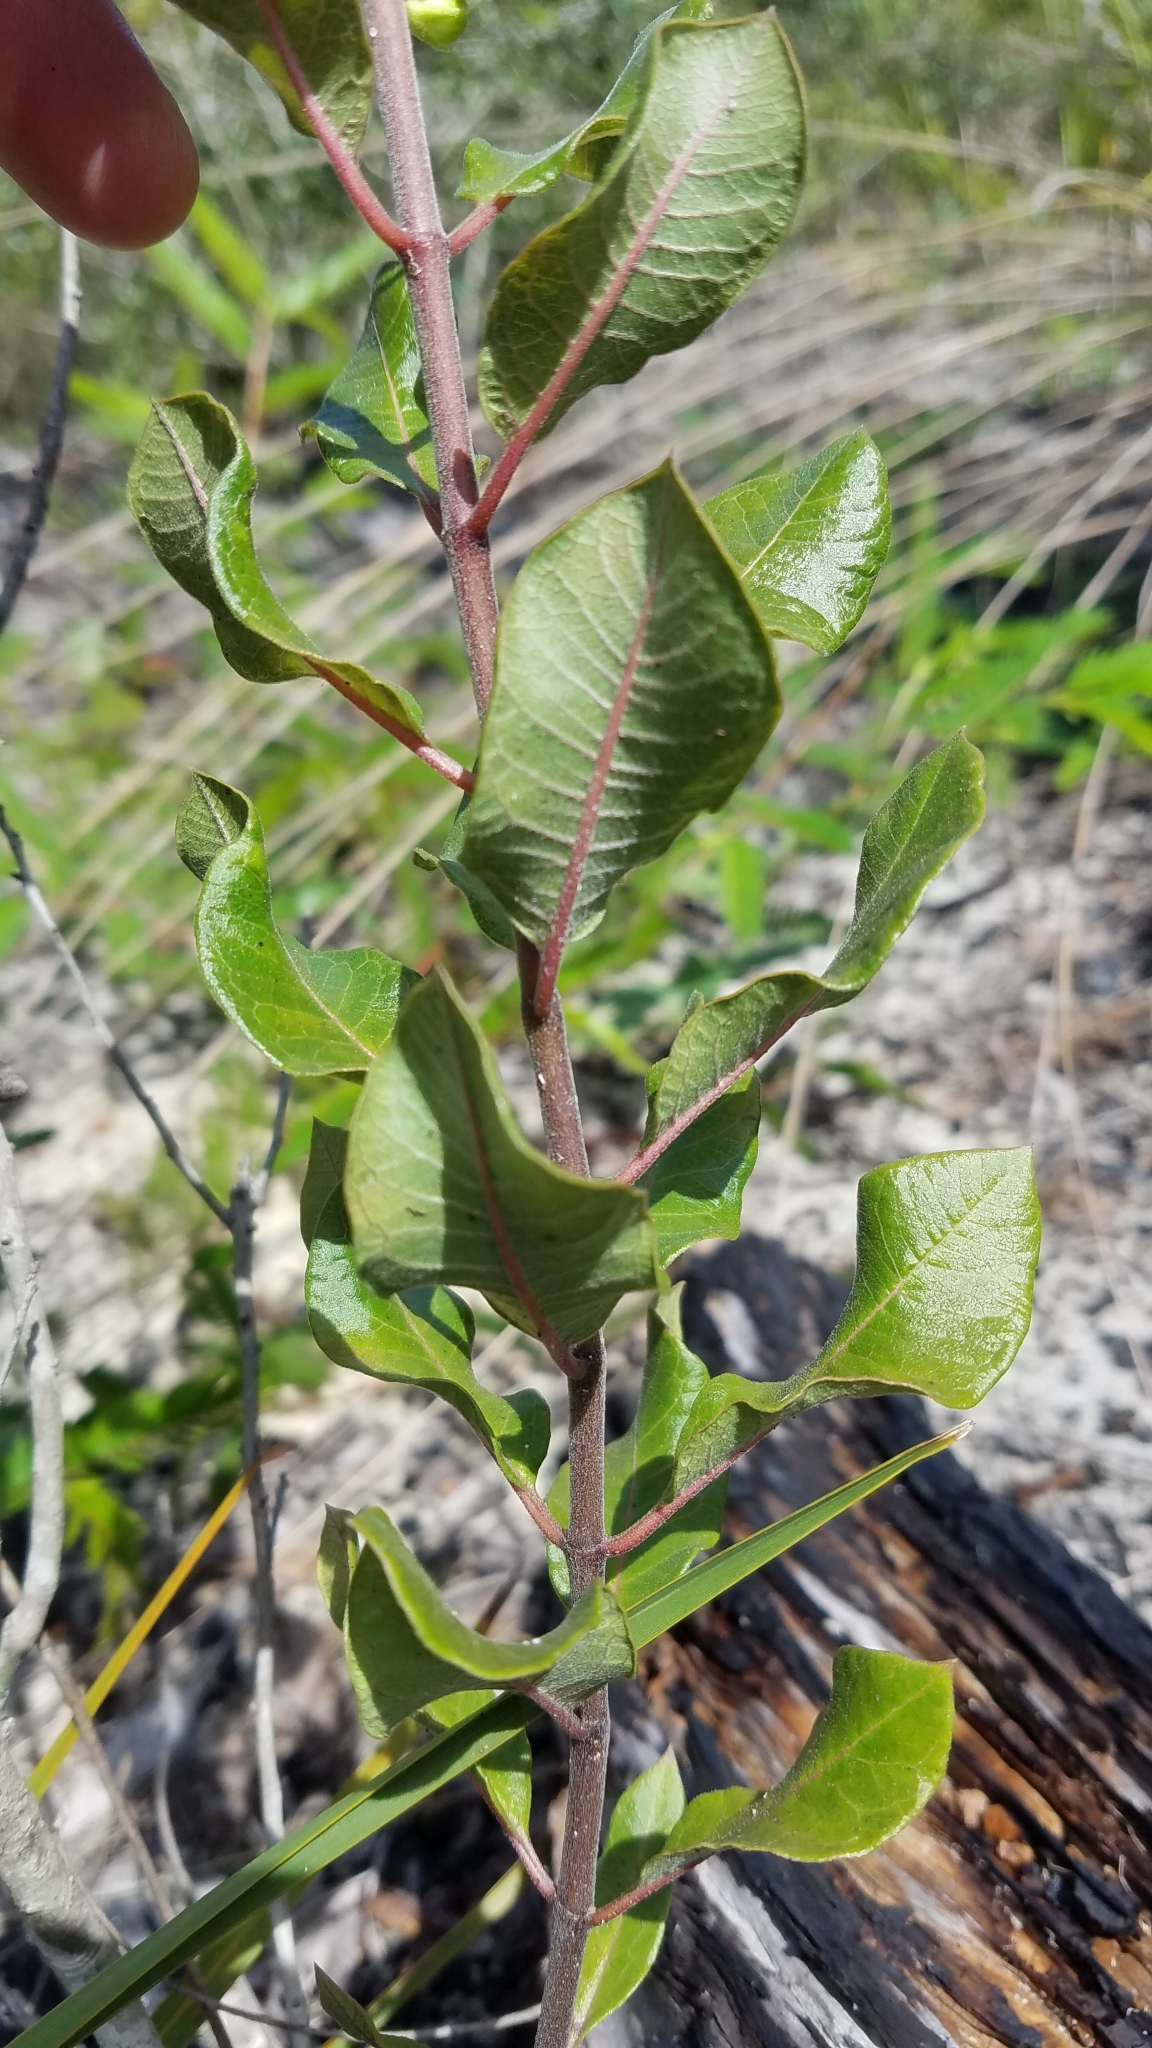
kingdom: Plantae
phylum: Tracheophyta
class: Magnoliopsida
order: Gentianales
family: Apocynaceae
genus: Asclepias
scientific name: Asclepias tomentosa
